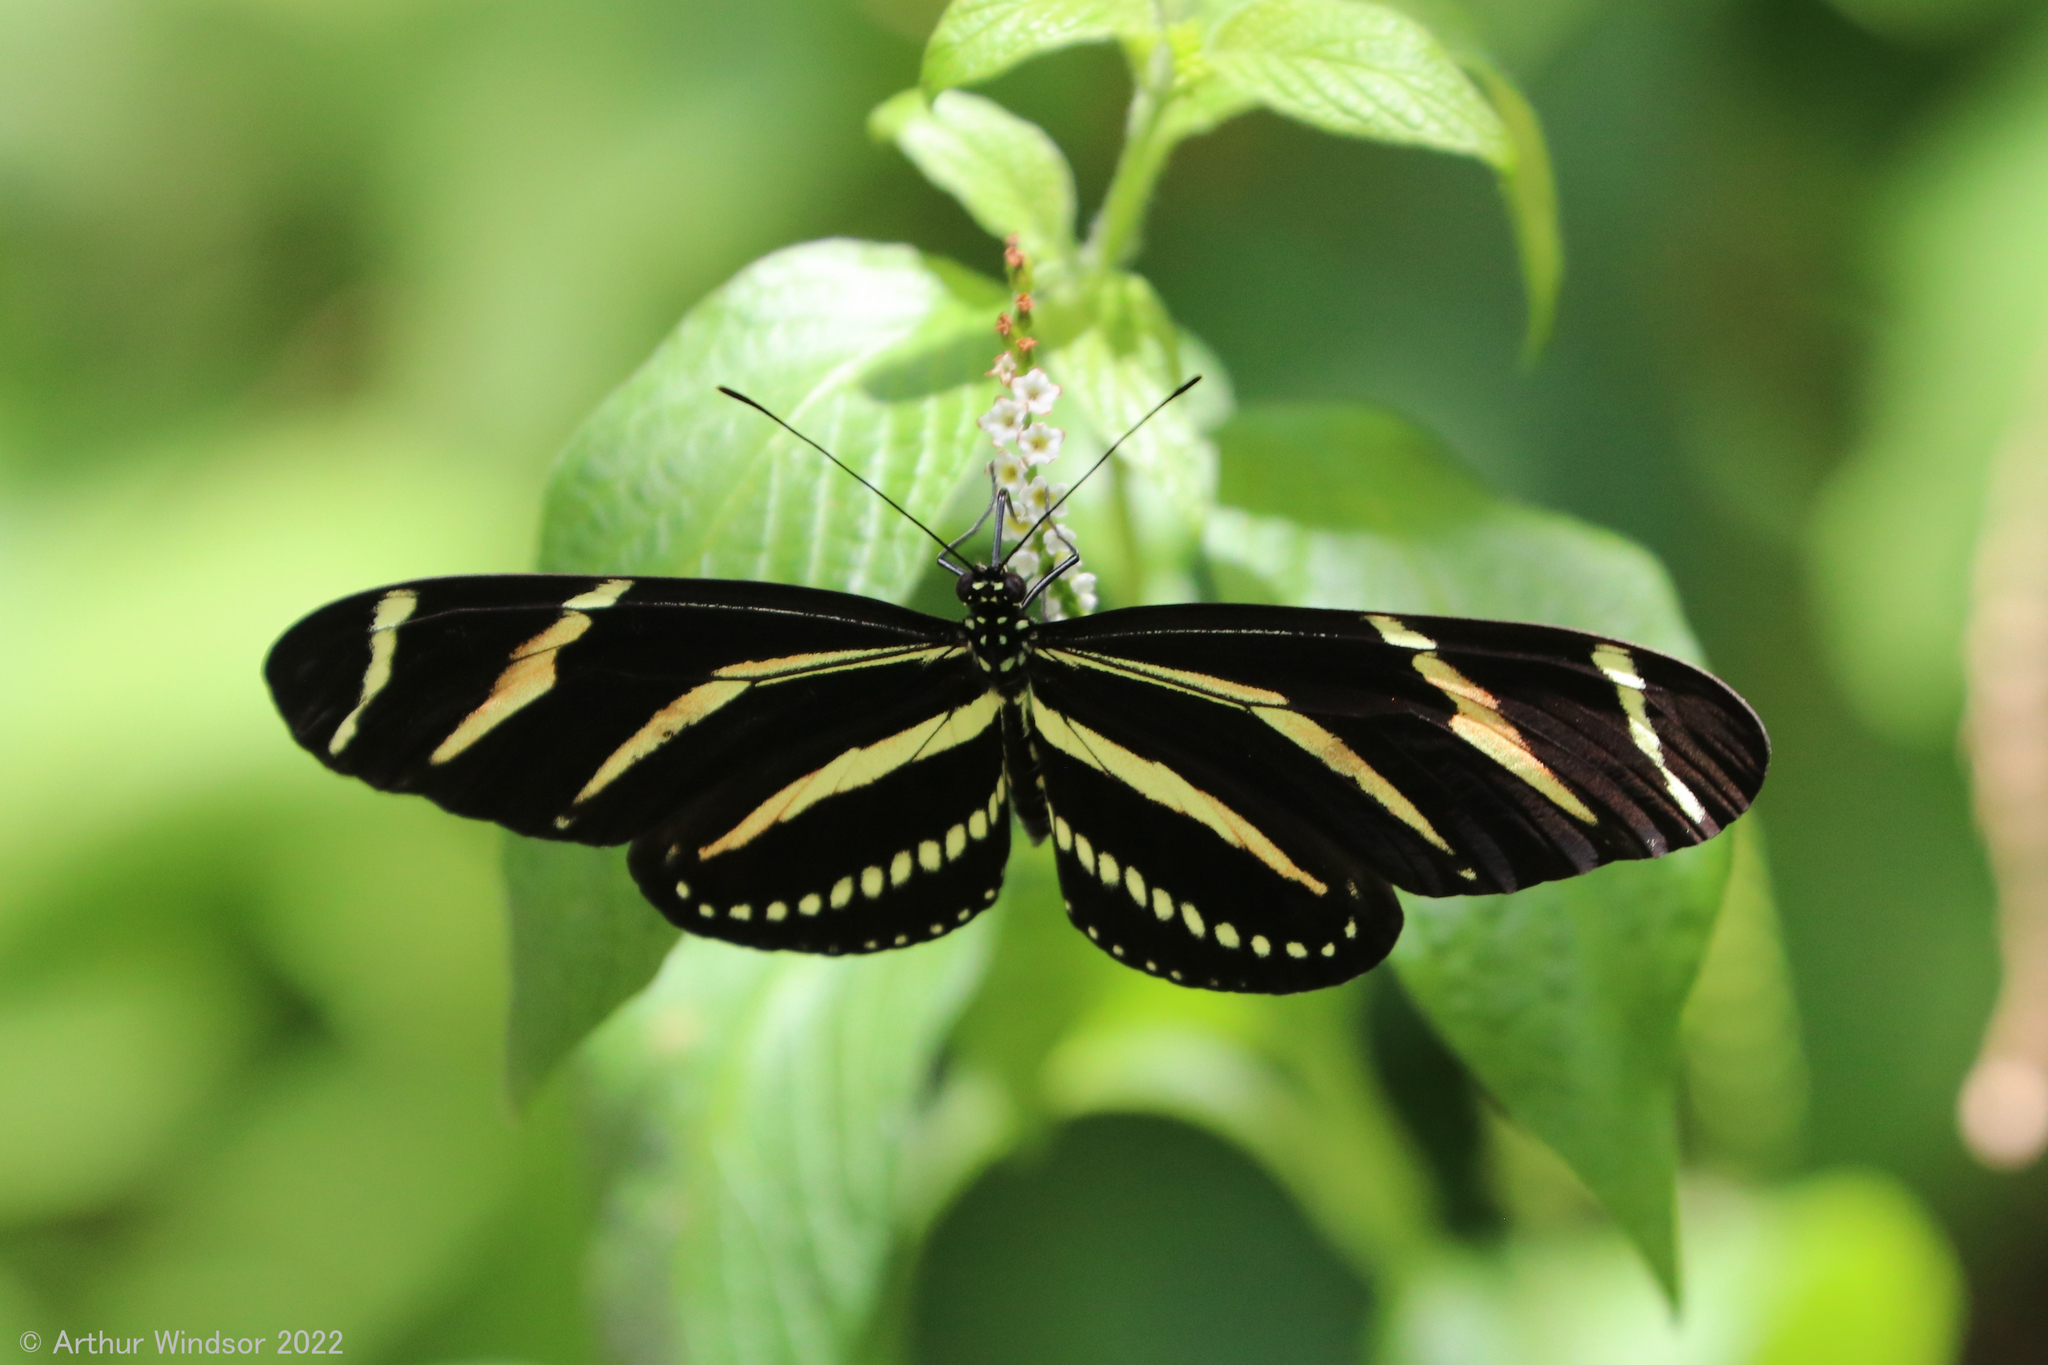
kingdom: Animalia
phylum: Arthropoda
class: Insecta
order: Lepidoptera
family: Nymphalidae
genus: Heliconius
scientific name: Heliconius charithonia
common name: Zebra long wing
